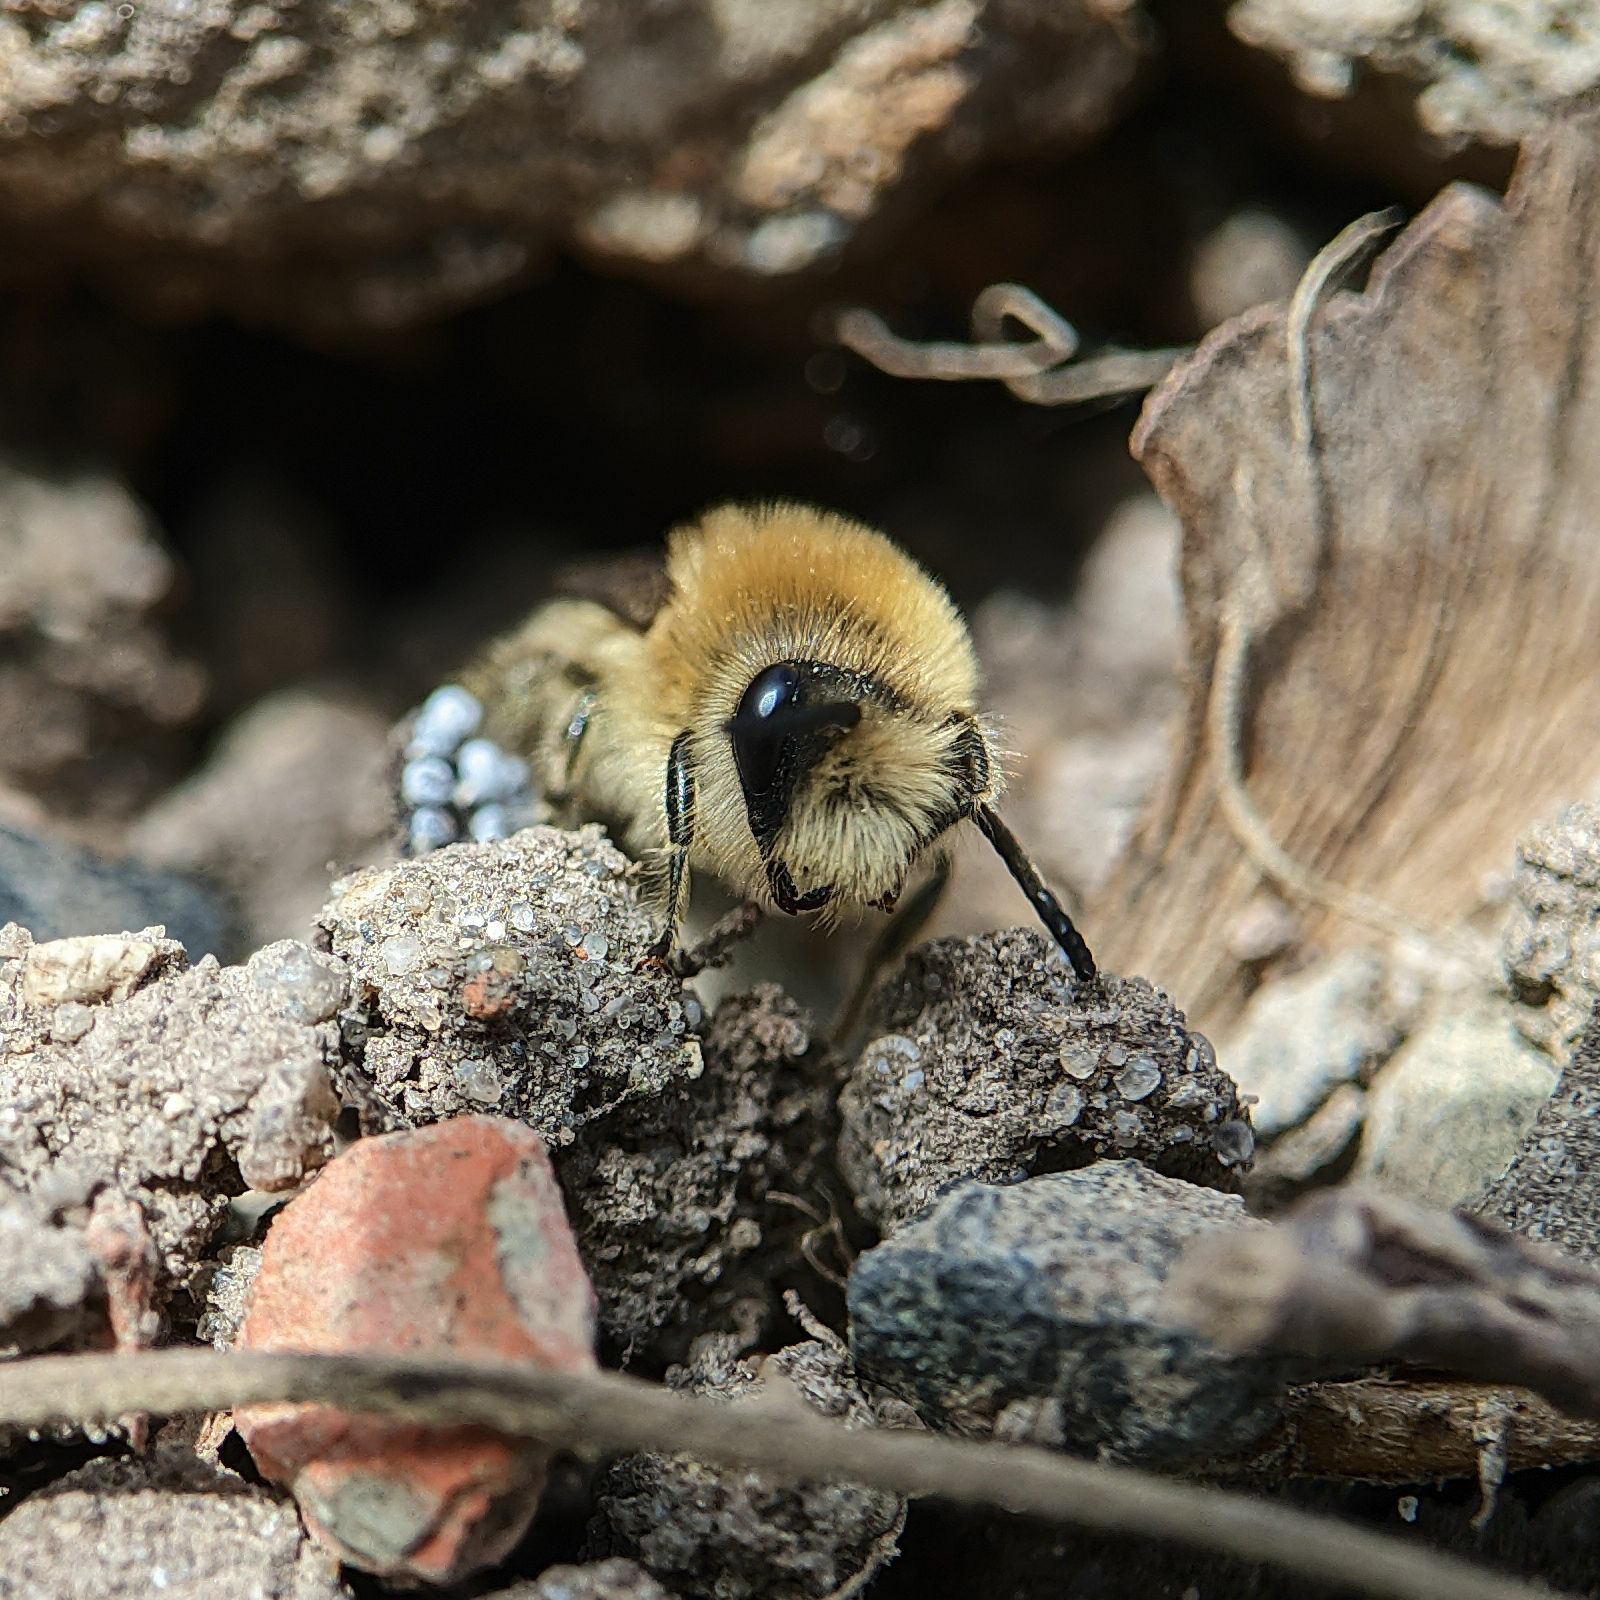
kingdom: Animalia
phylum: Arthropoda
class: Insecta
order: Hymenoptera
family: Colletidae
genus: Colletes
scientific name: Colletes cunicularius
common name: Early colletes
